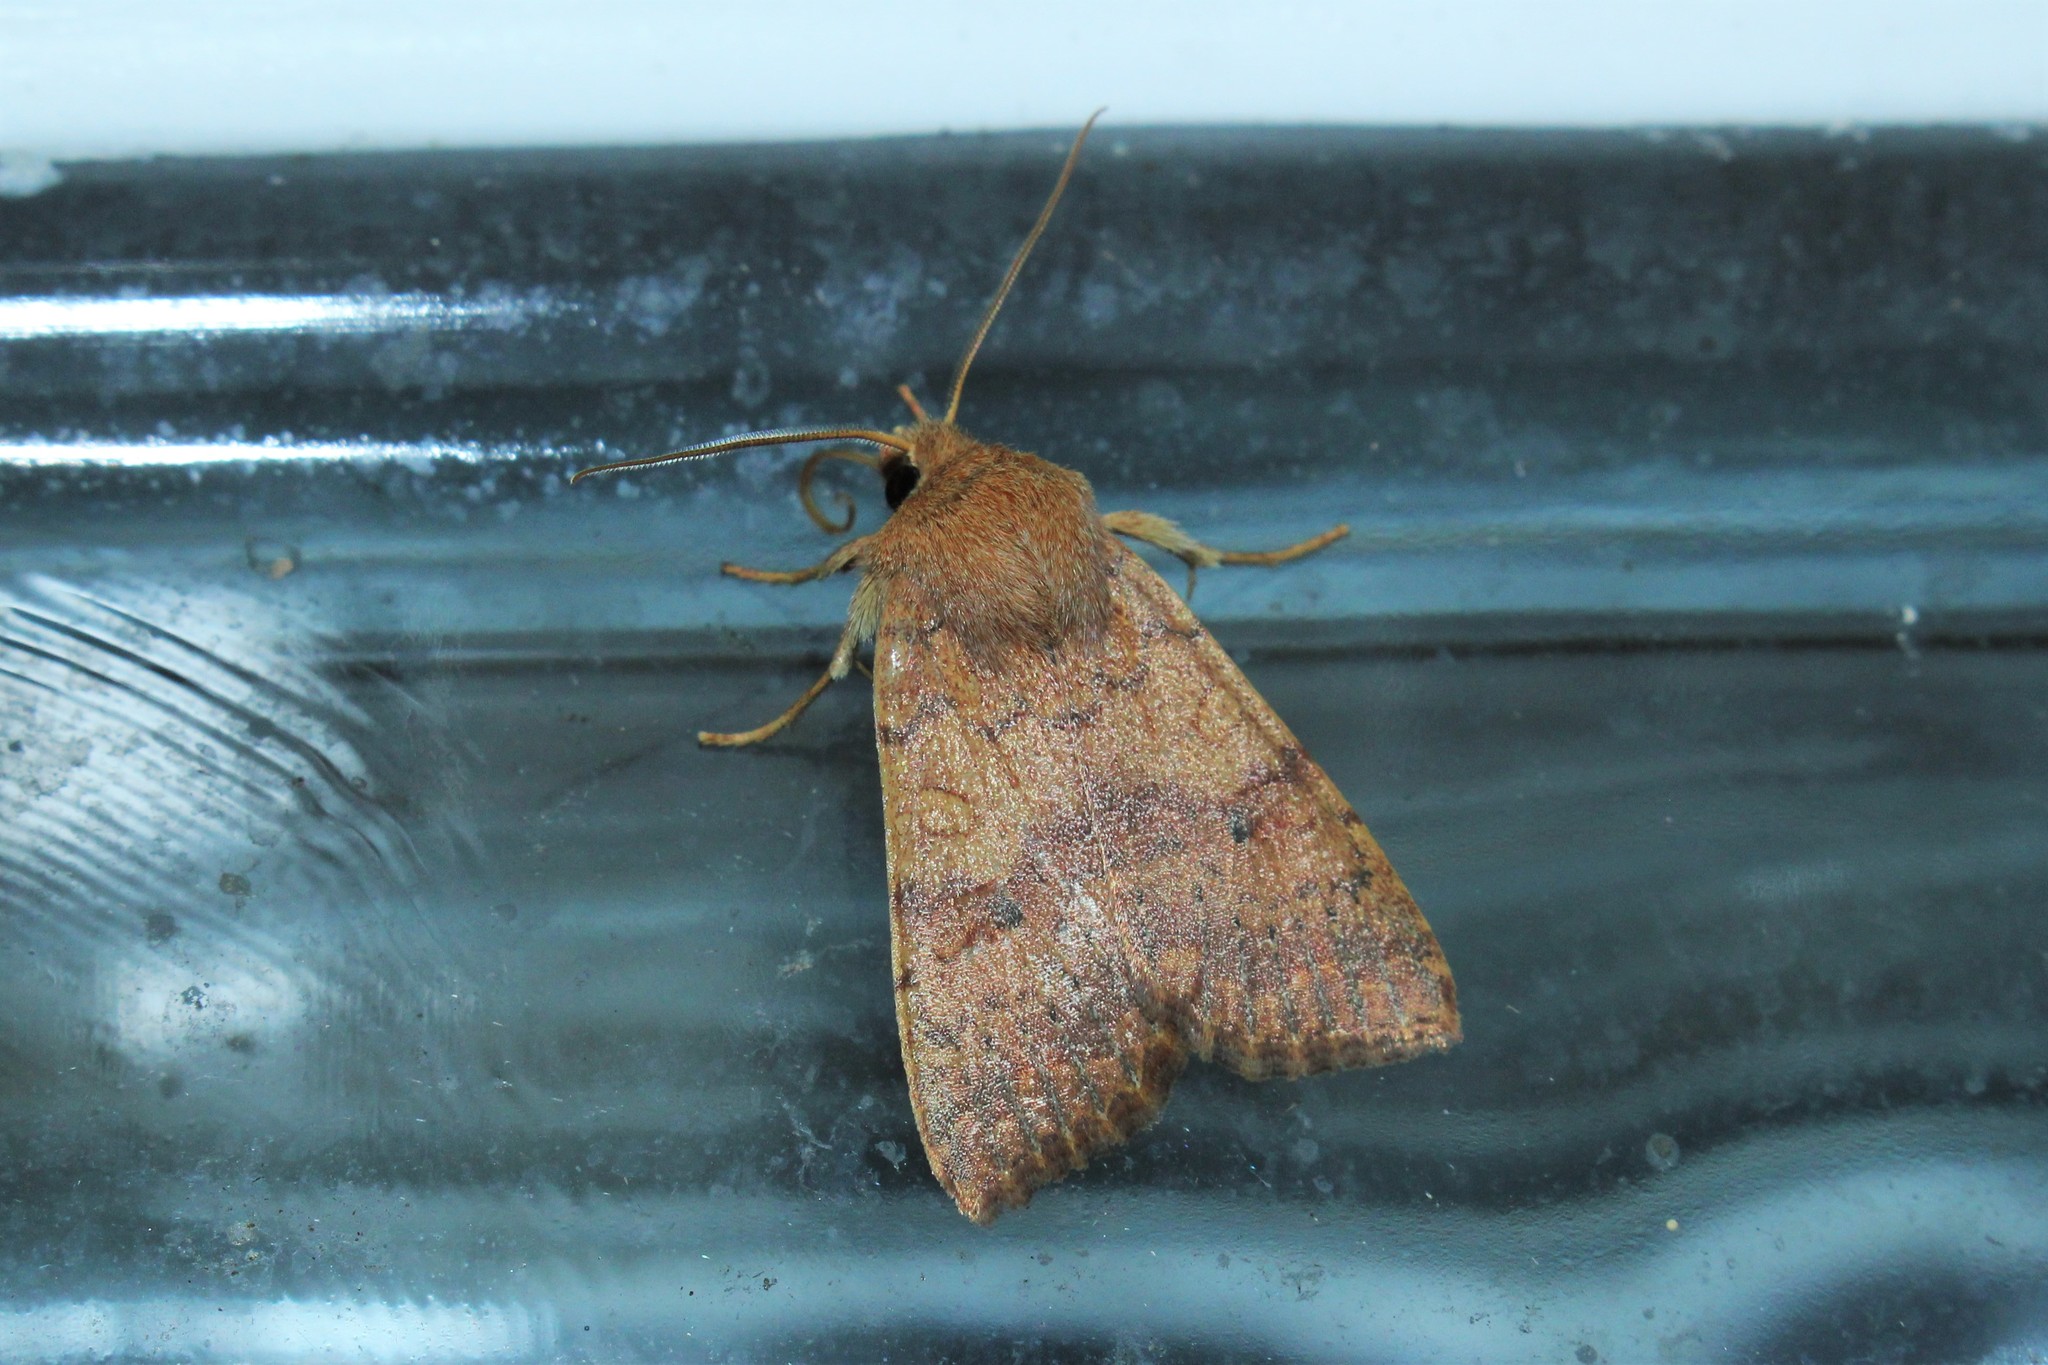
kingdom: Animalia
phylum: Arthropoda
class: Insecta
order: Lepidoptera
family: Noctuidae
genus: Agrochola
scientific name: Agrochola bicolorago
